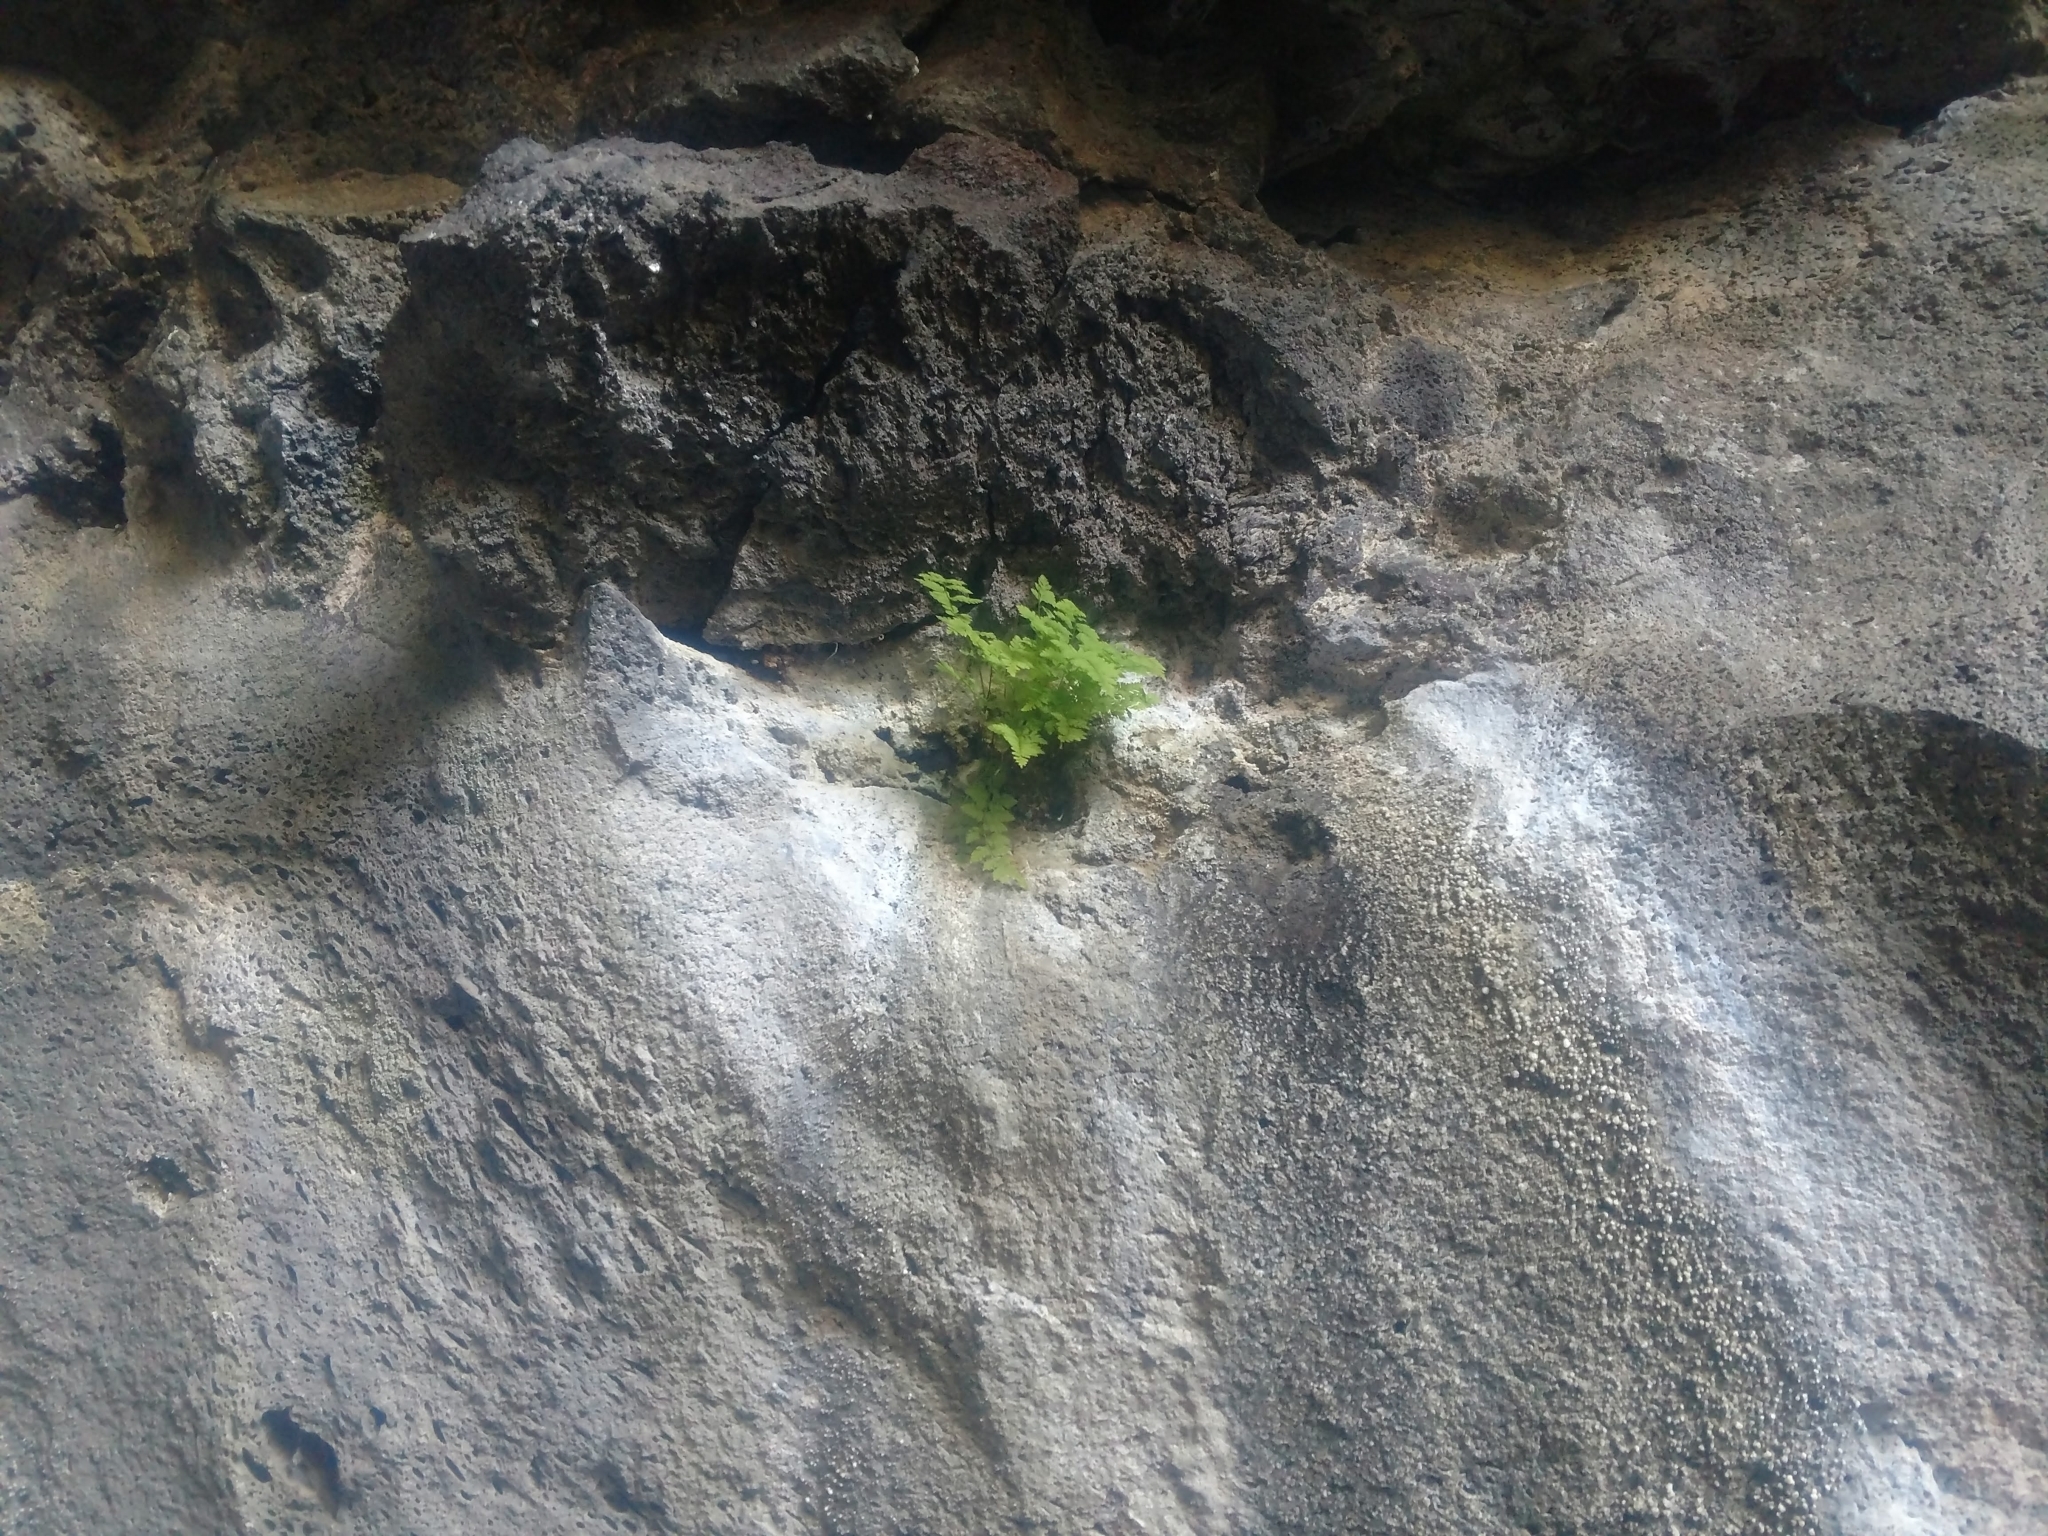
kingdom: Plantae
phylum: Tracheophyta
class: Polypodiopsida
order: Polypodiales
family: Cystopteridaceae
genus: Cystopteris
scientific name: Cystopteris fragilis
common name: Brittle bladder fern
